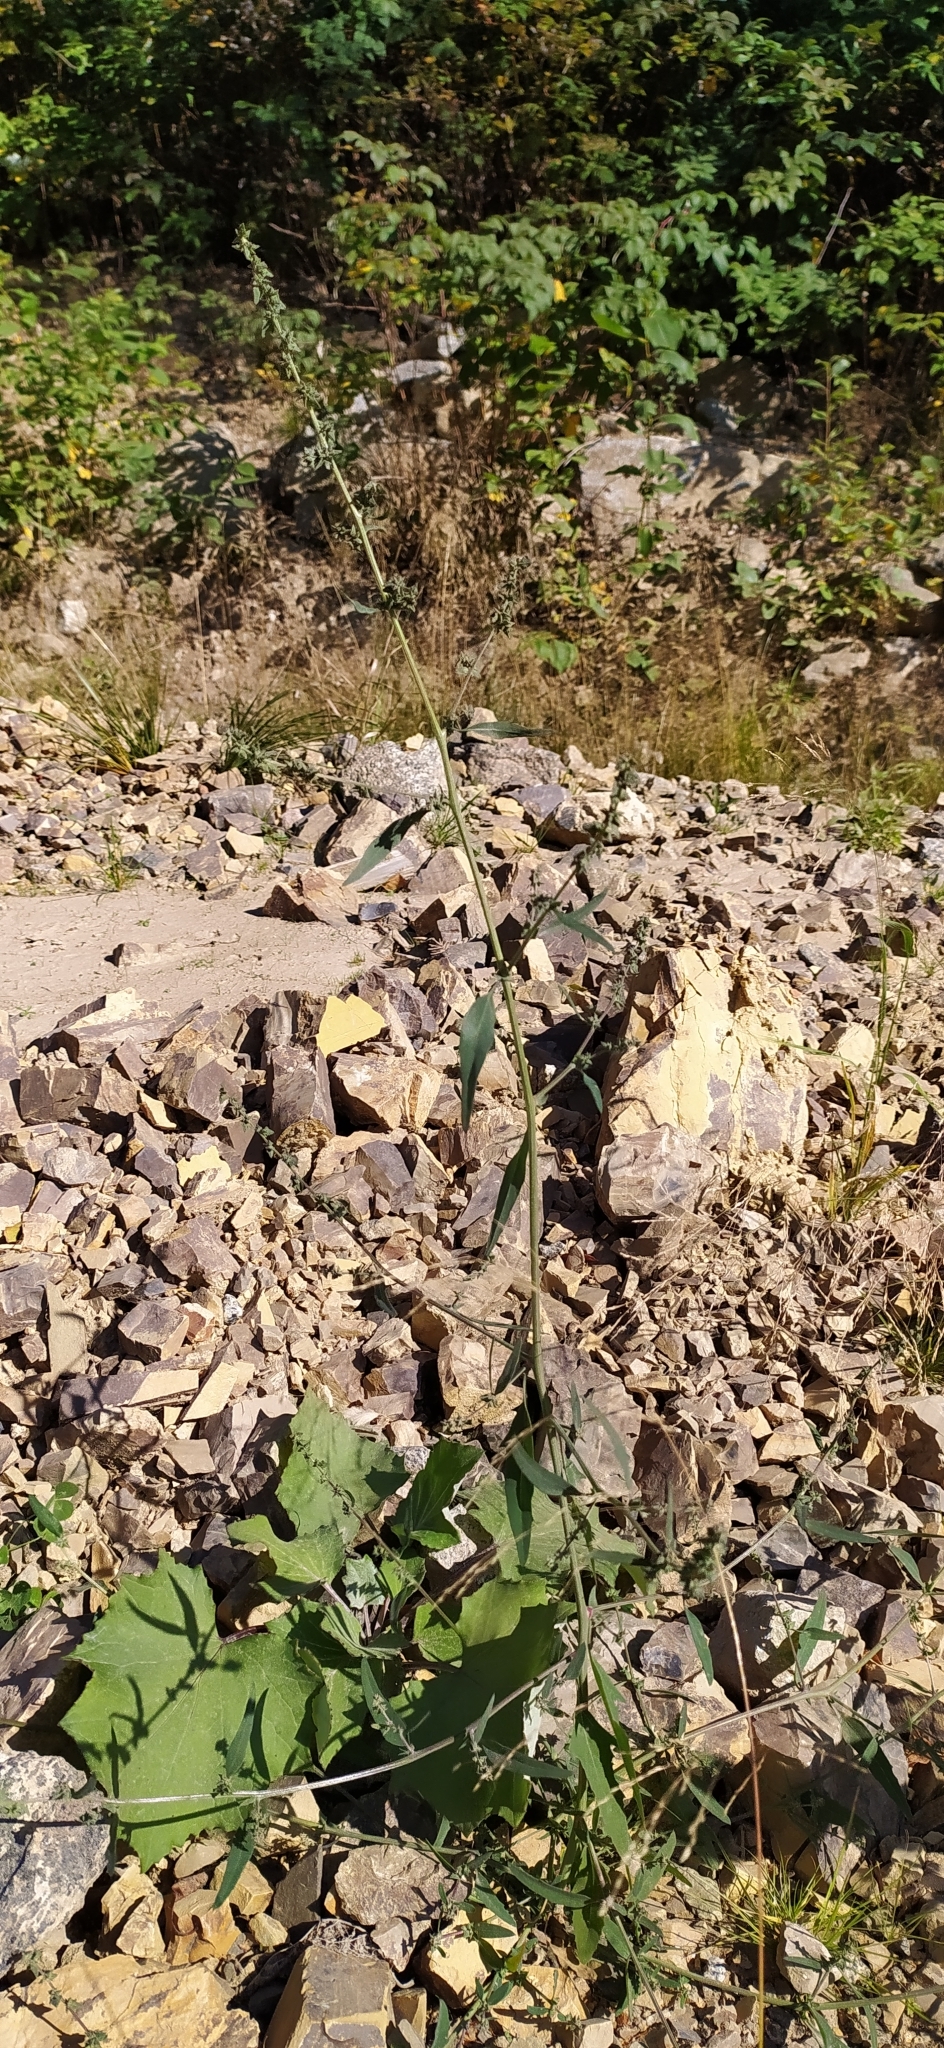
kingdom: Plantae
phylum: Tracheophyta
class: Magnoliopsida
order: Caryophyllales
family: Amaranthaceae
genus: Atriplex
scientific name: Atriplex patula
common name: Common orache
